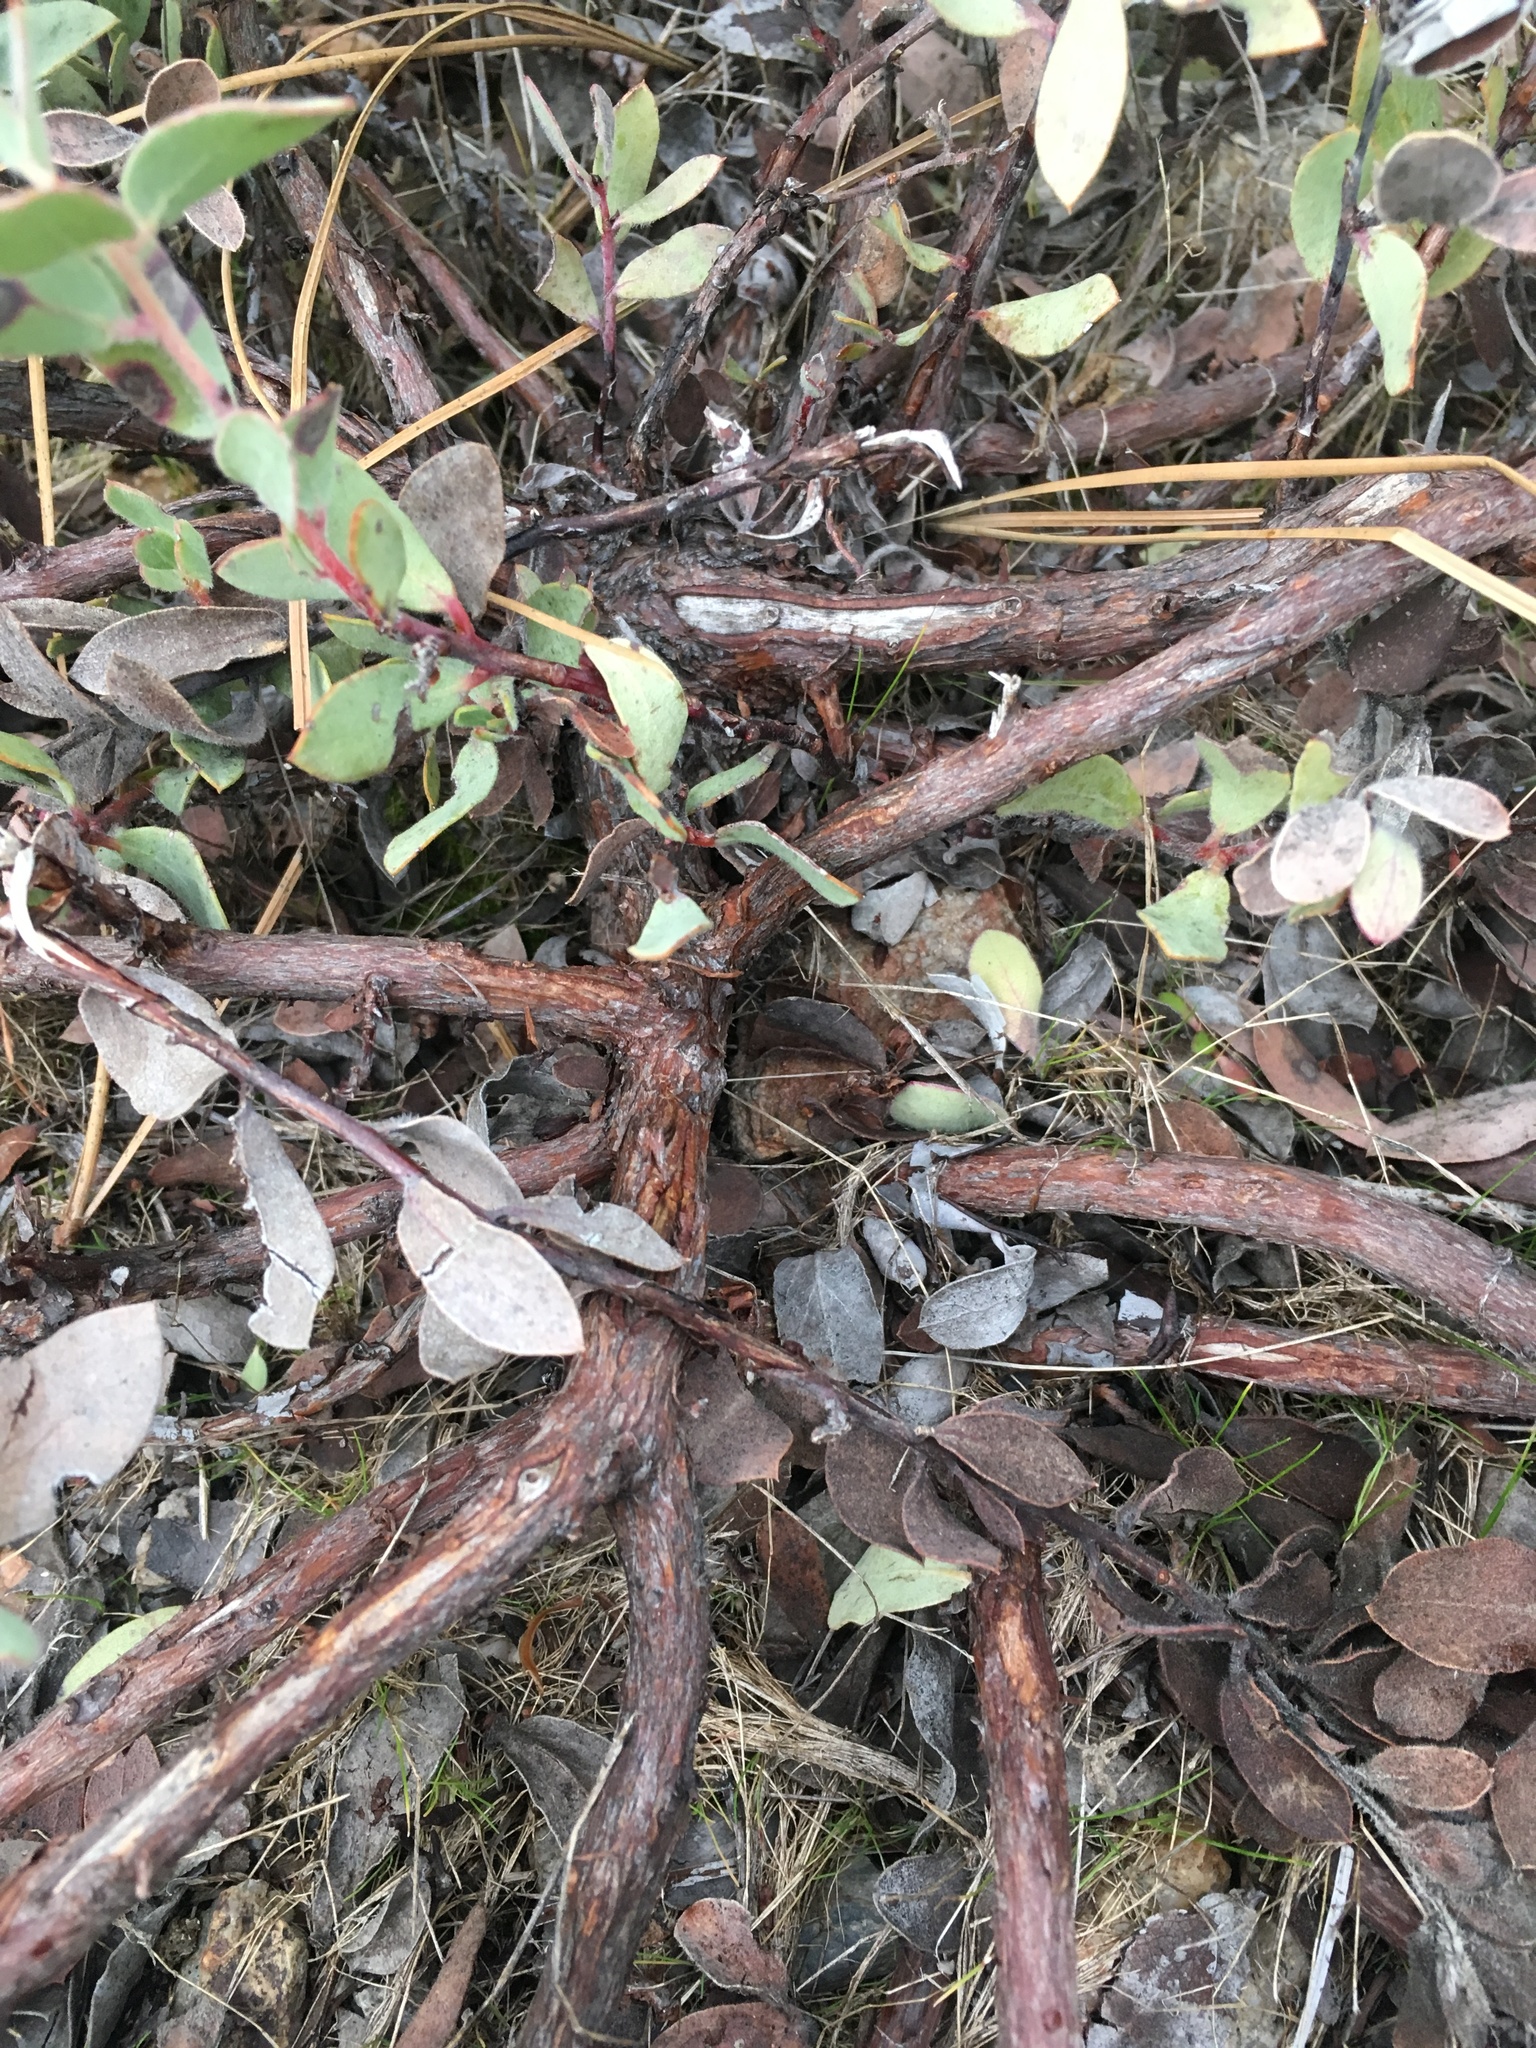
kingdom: Plantae
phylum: Tracheophyta
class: Magnoliopsida
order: Ericales
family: Ericaceae
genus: Arctostaphylos
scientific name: Arctostaphylos nissenana
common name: Nissenan manzanita
